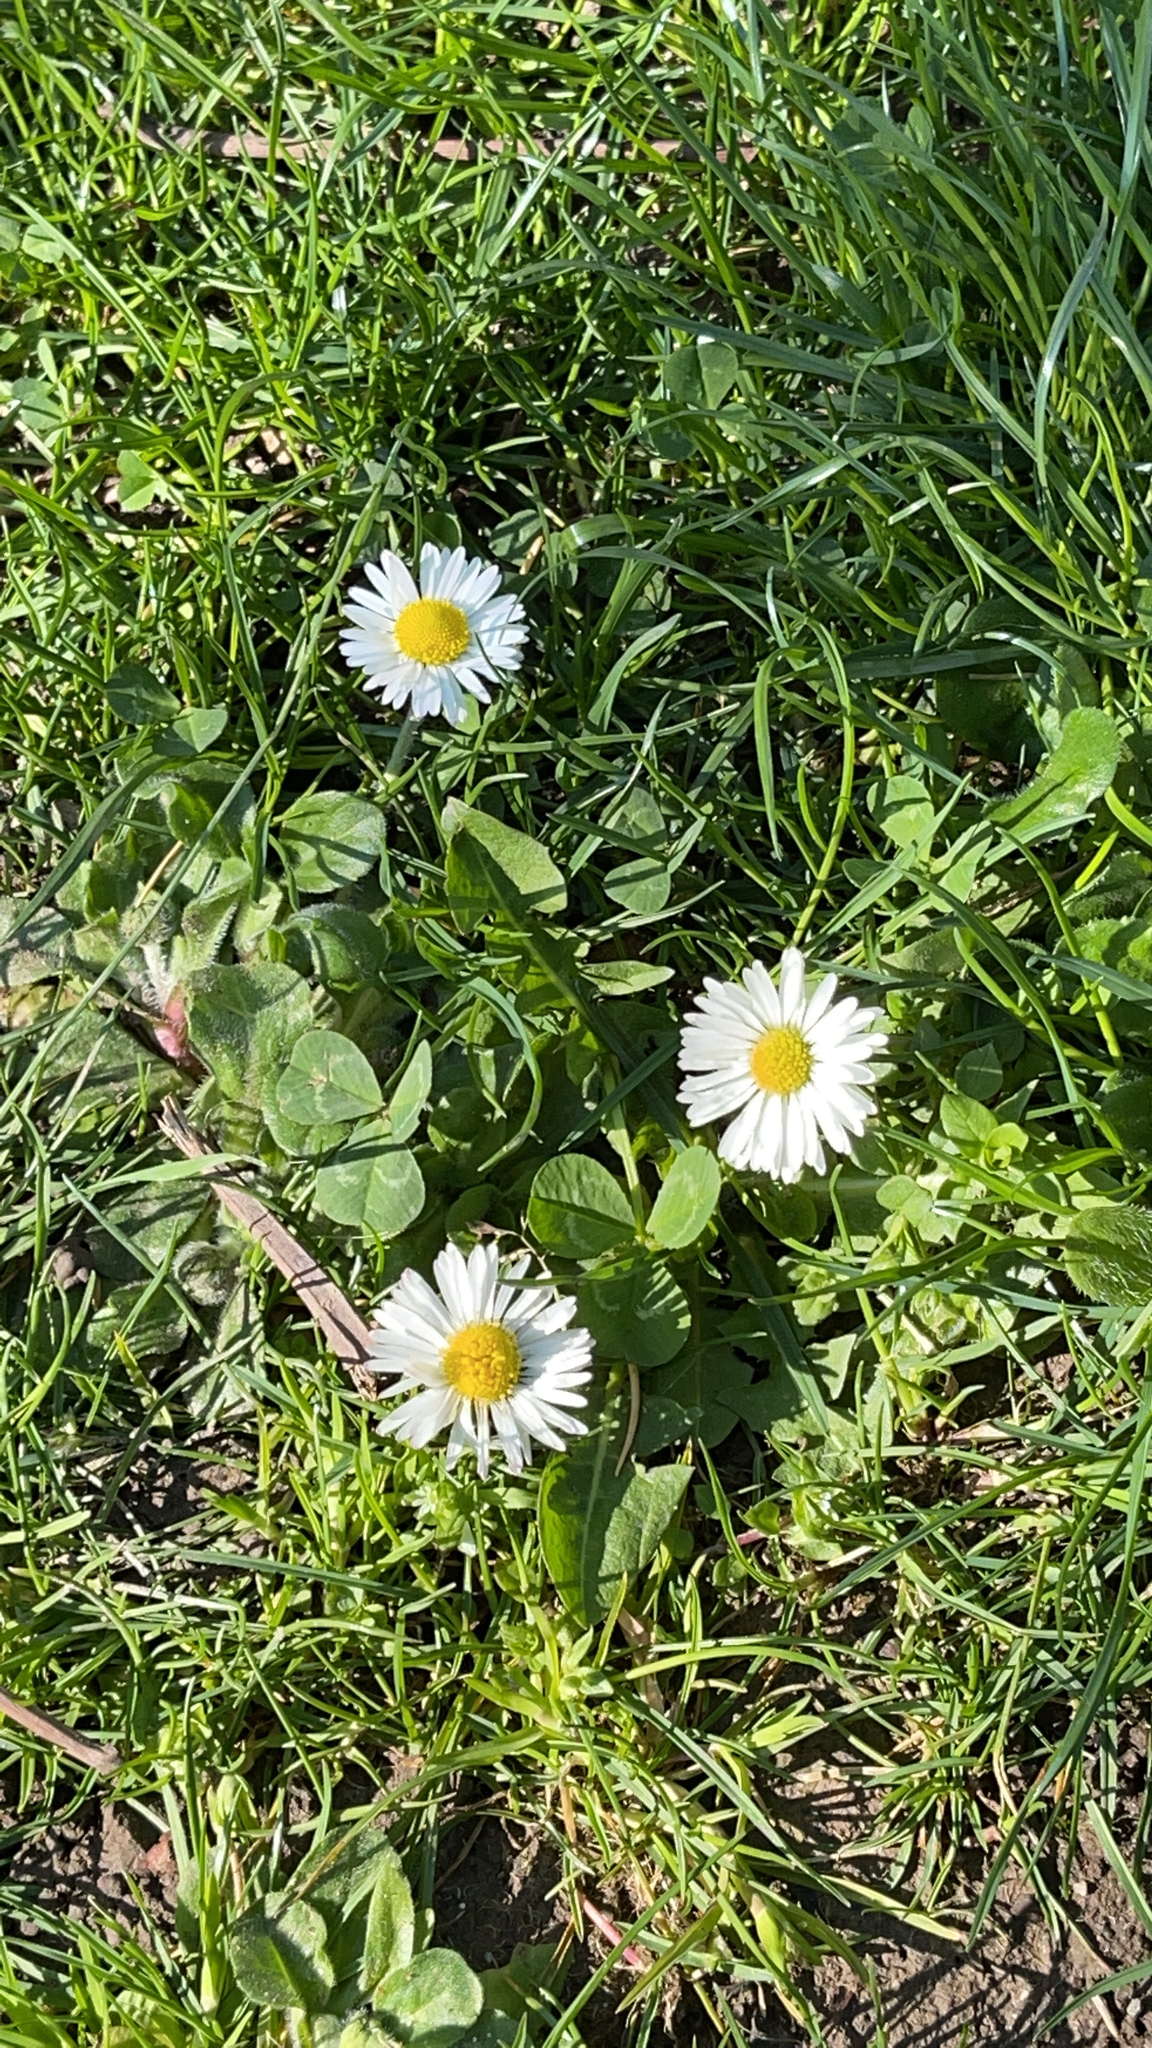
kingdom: Plantae
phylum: Tracheophyta
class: Magnoliopsida
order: Asterales
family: Asteraceae
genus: Bellis
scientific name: Bellis perennis
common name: Lawndaisy
